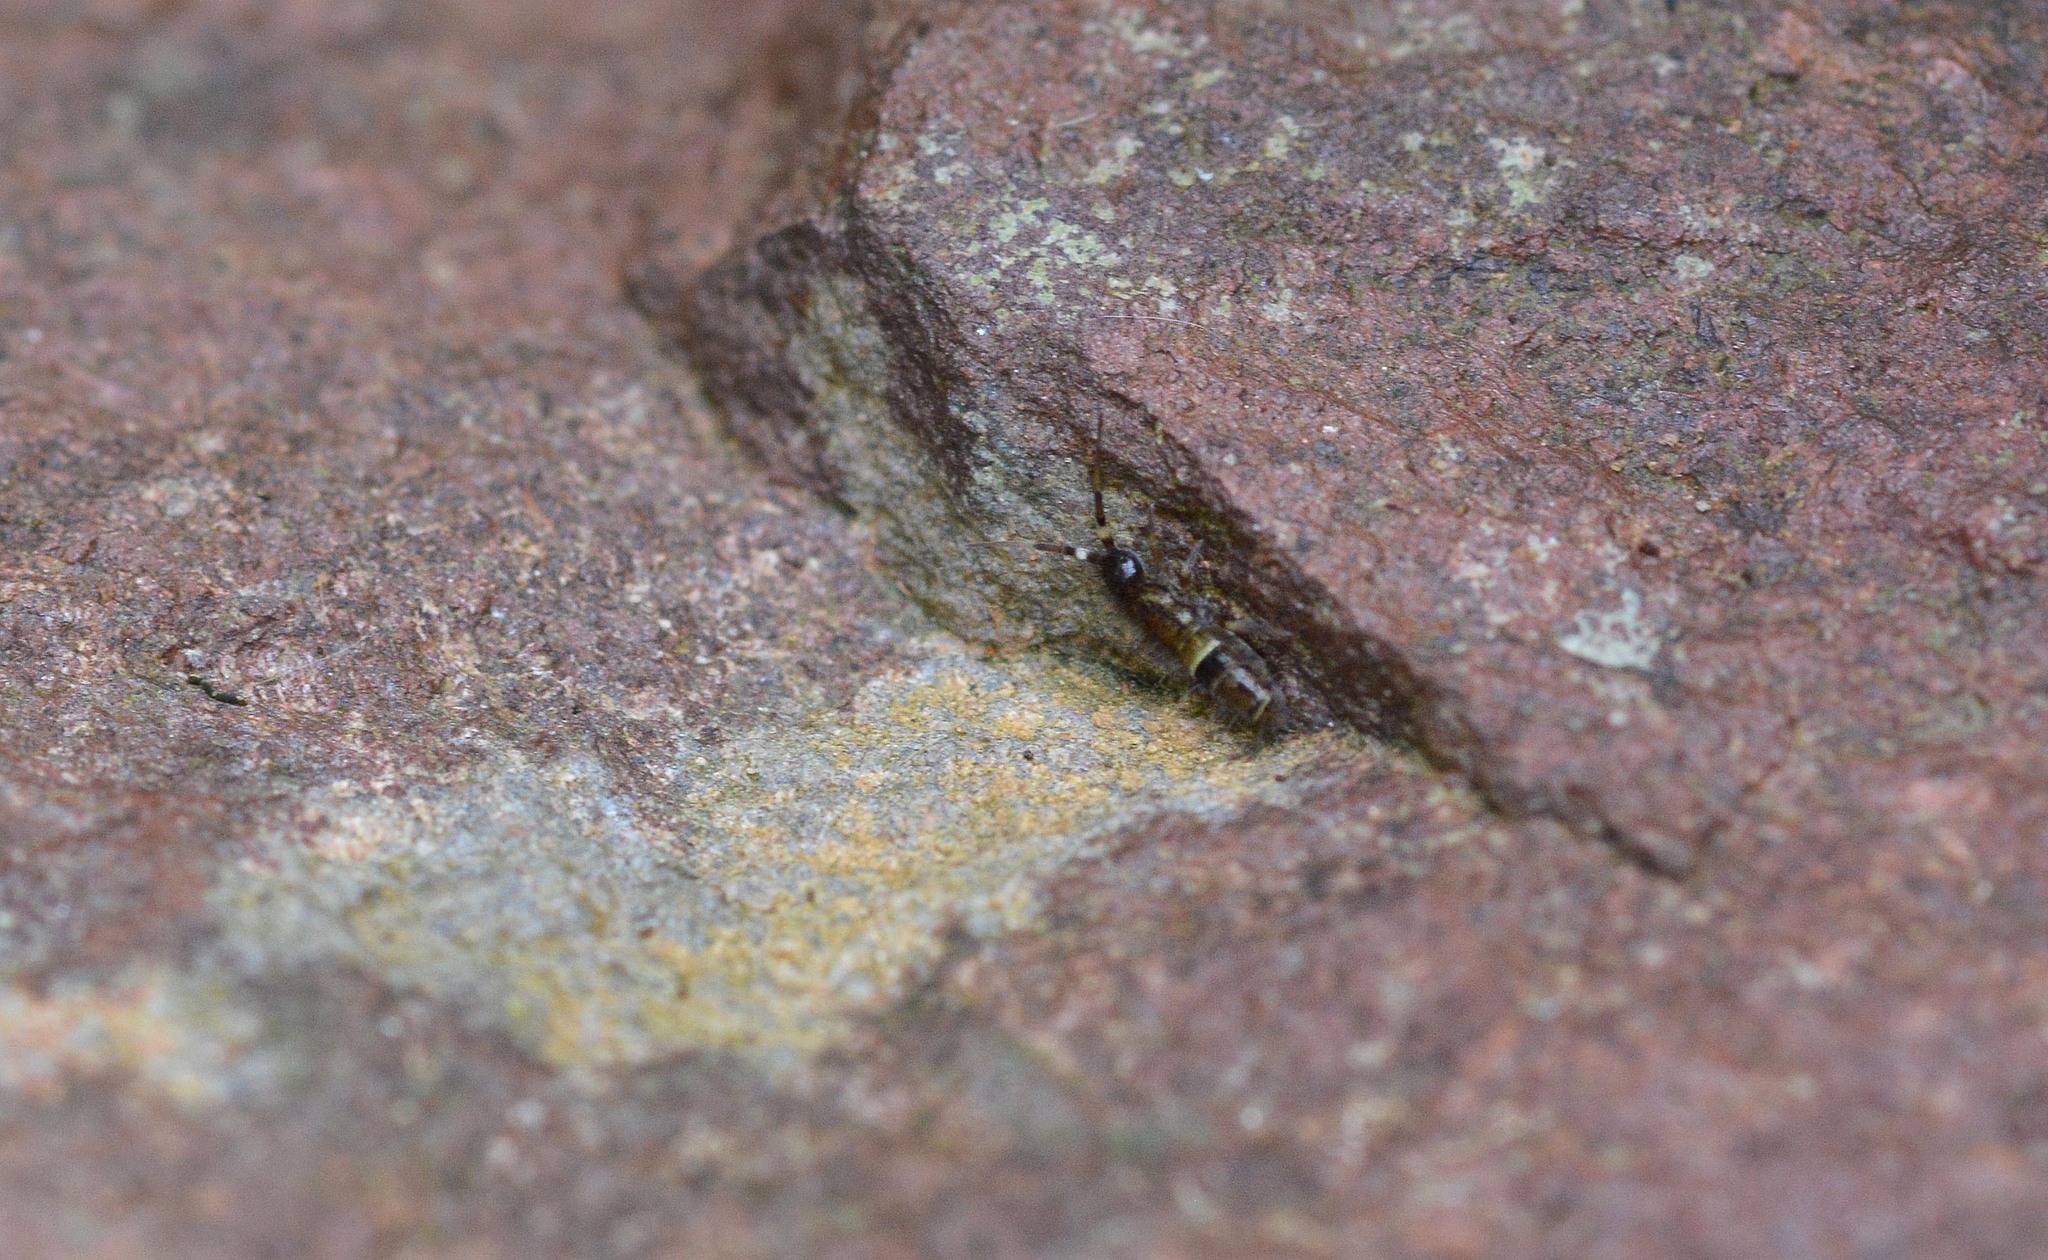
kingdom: Animalia
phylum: Arthropoda
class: Collembola
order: Entomobryomorpha
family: Orchesellidae
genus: Orchesella
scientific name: Orchesella cincta
